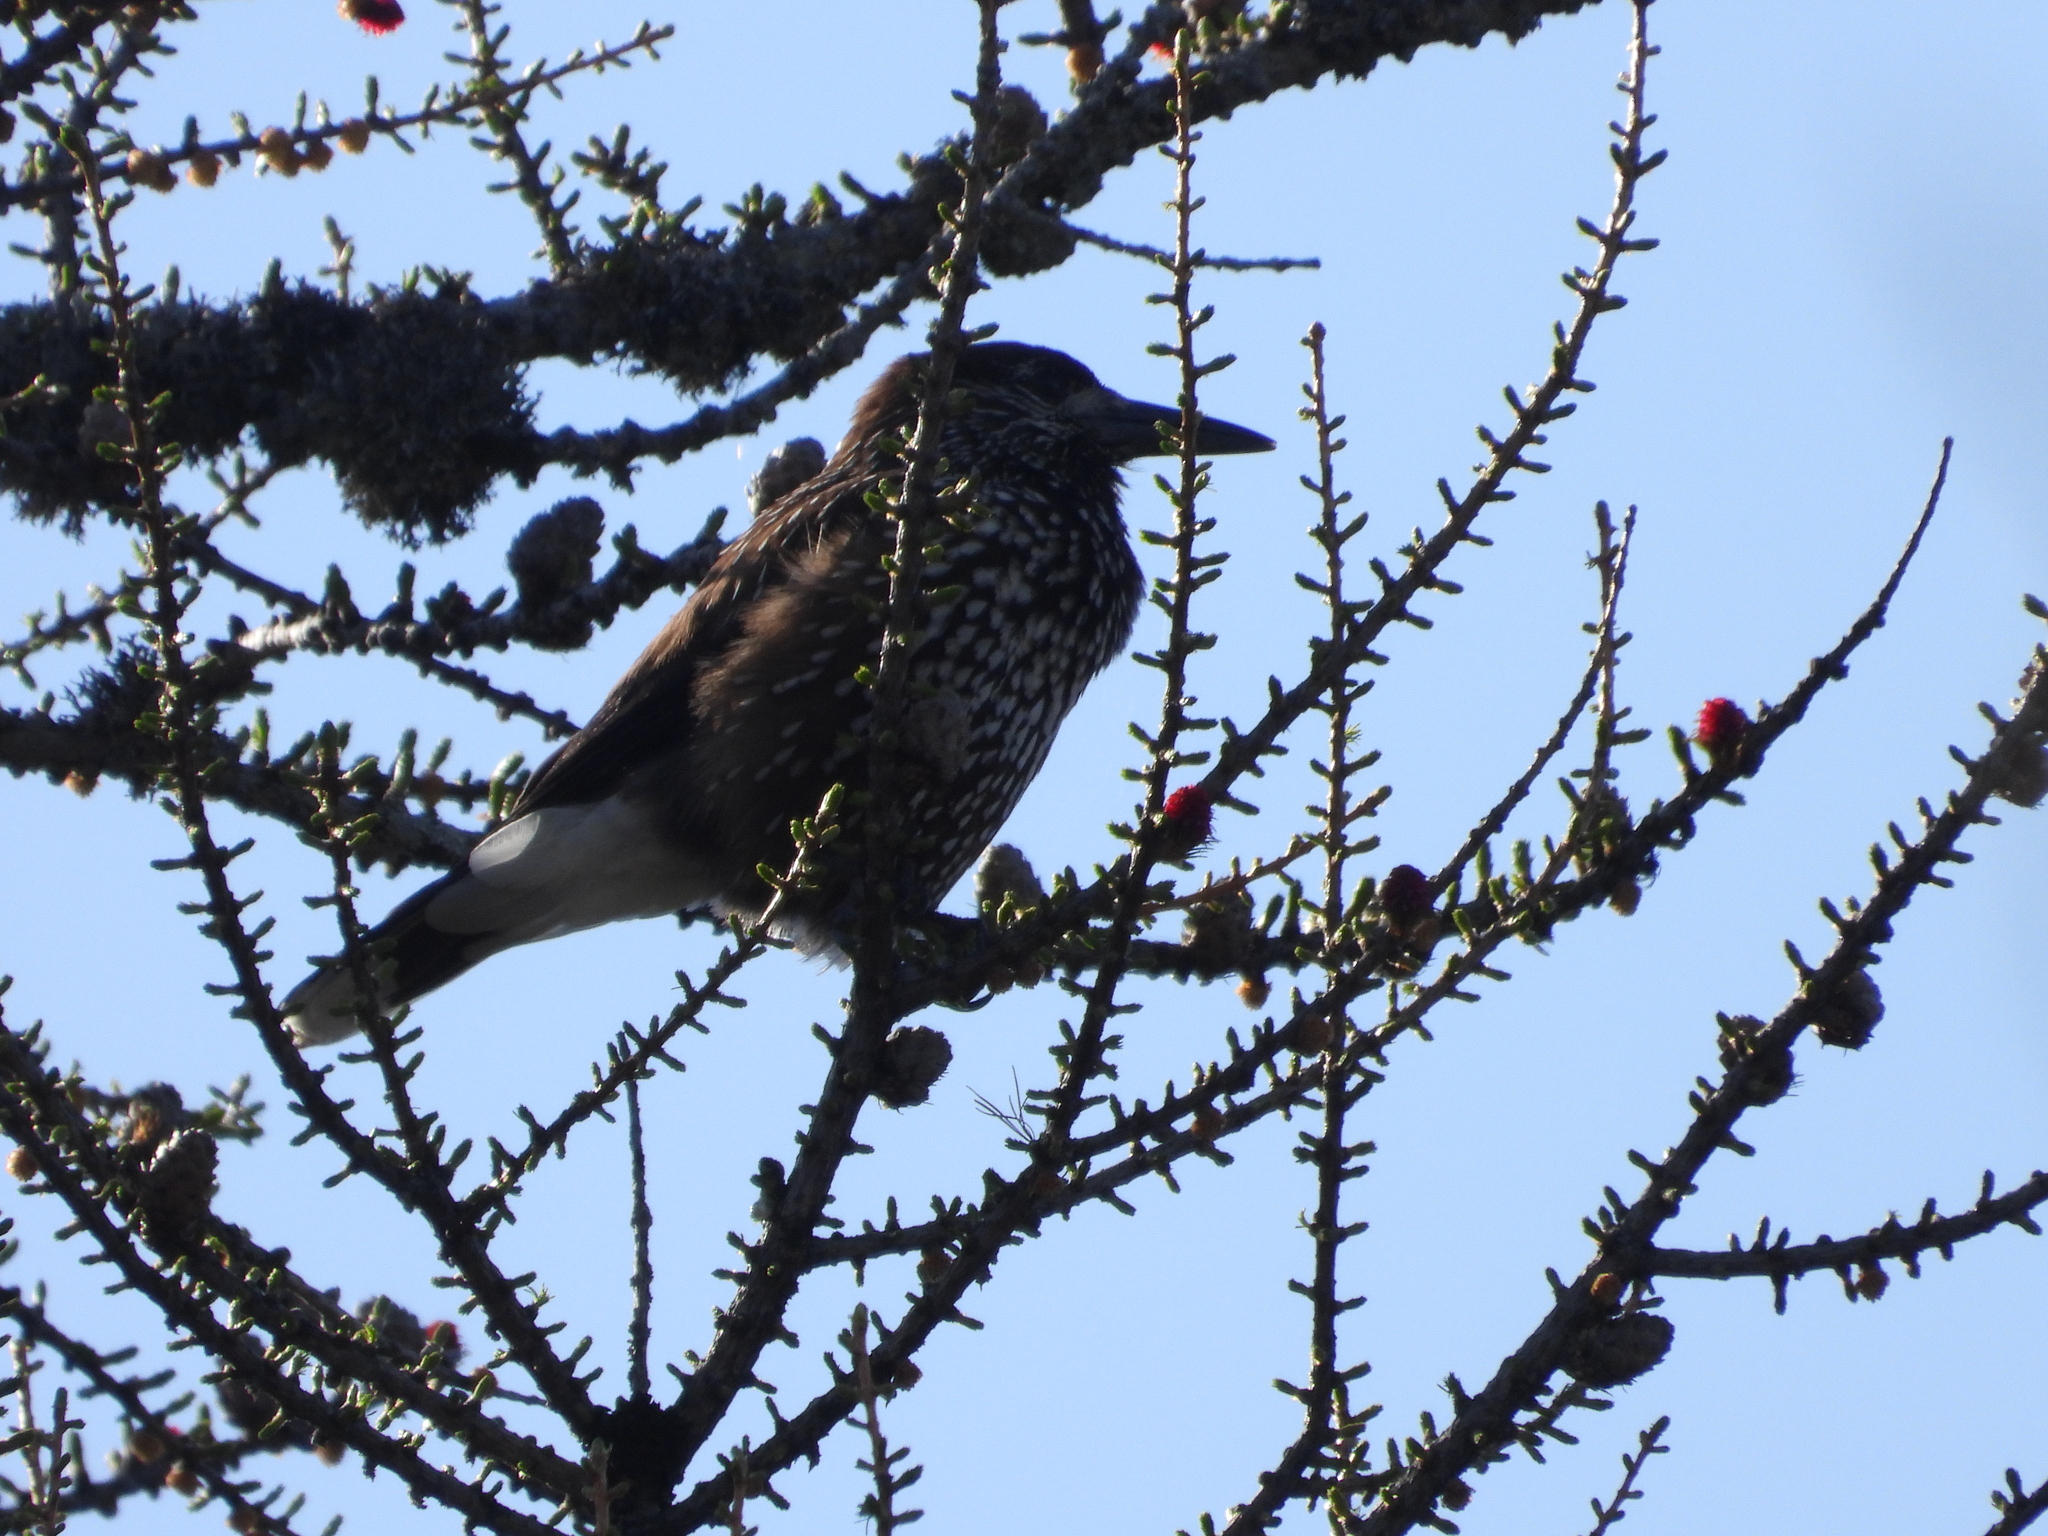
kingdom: Animalia
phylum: Chordata
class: Aves
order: Passeriformes
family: Corvidae
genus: Nucifraga
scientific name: Nucifraga caryocatactes
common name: Spotted nutcracker
